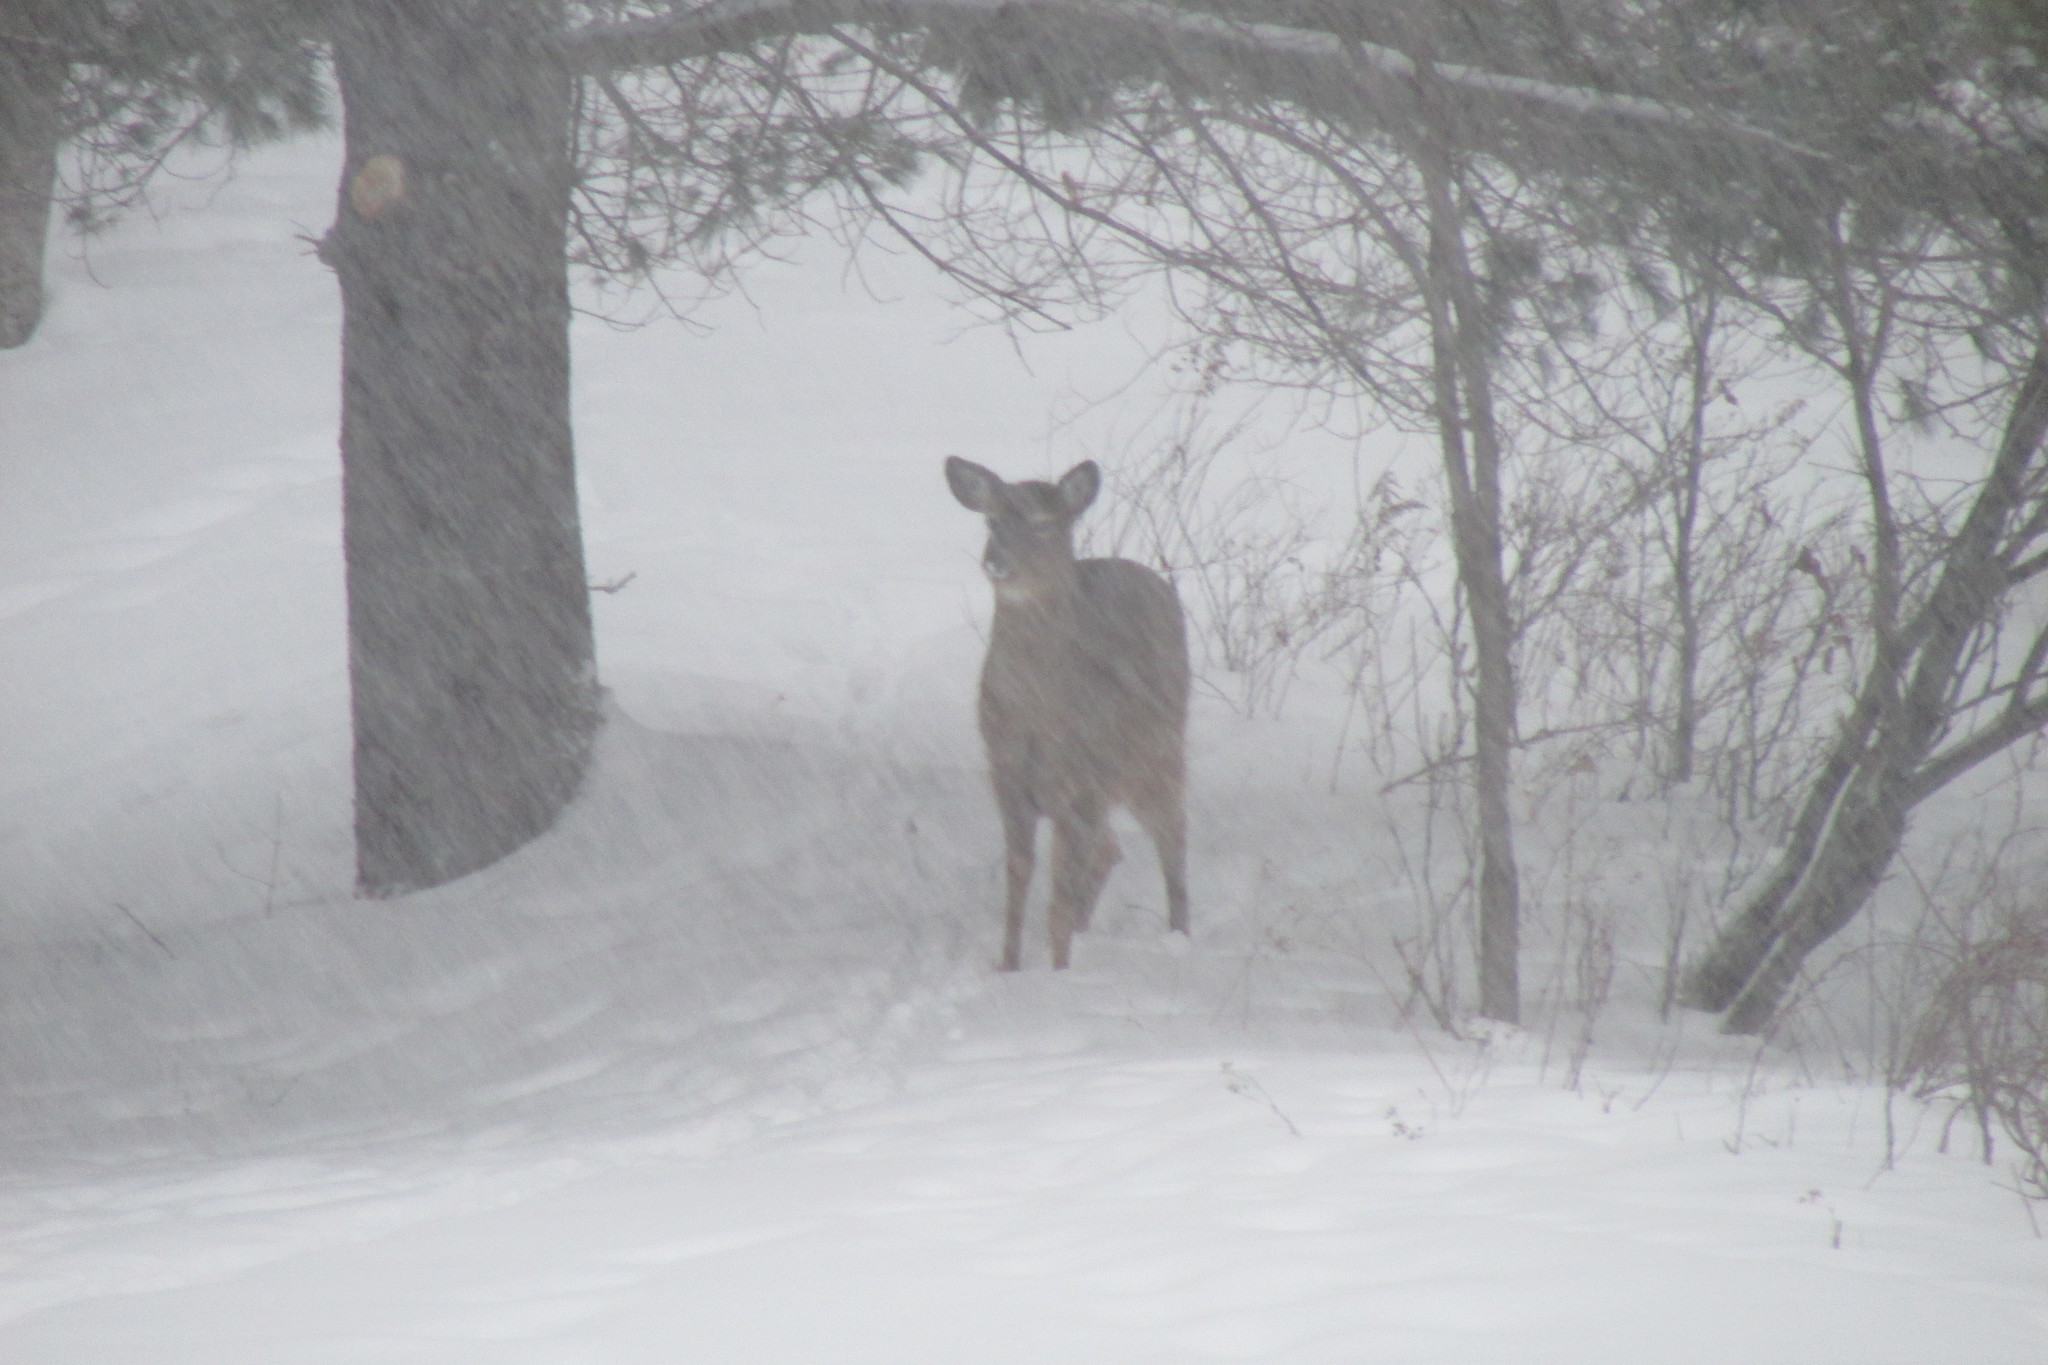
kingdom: Animalia
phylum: Chordata
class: Mammalia
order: Artiodactyla
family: Cervidae
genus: Odocoileus
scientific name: Odocoileus virginianus
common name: White-tailed deer
